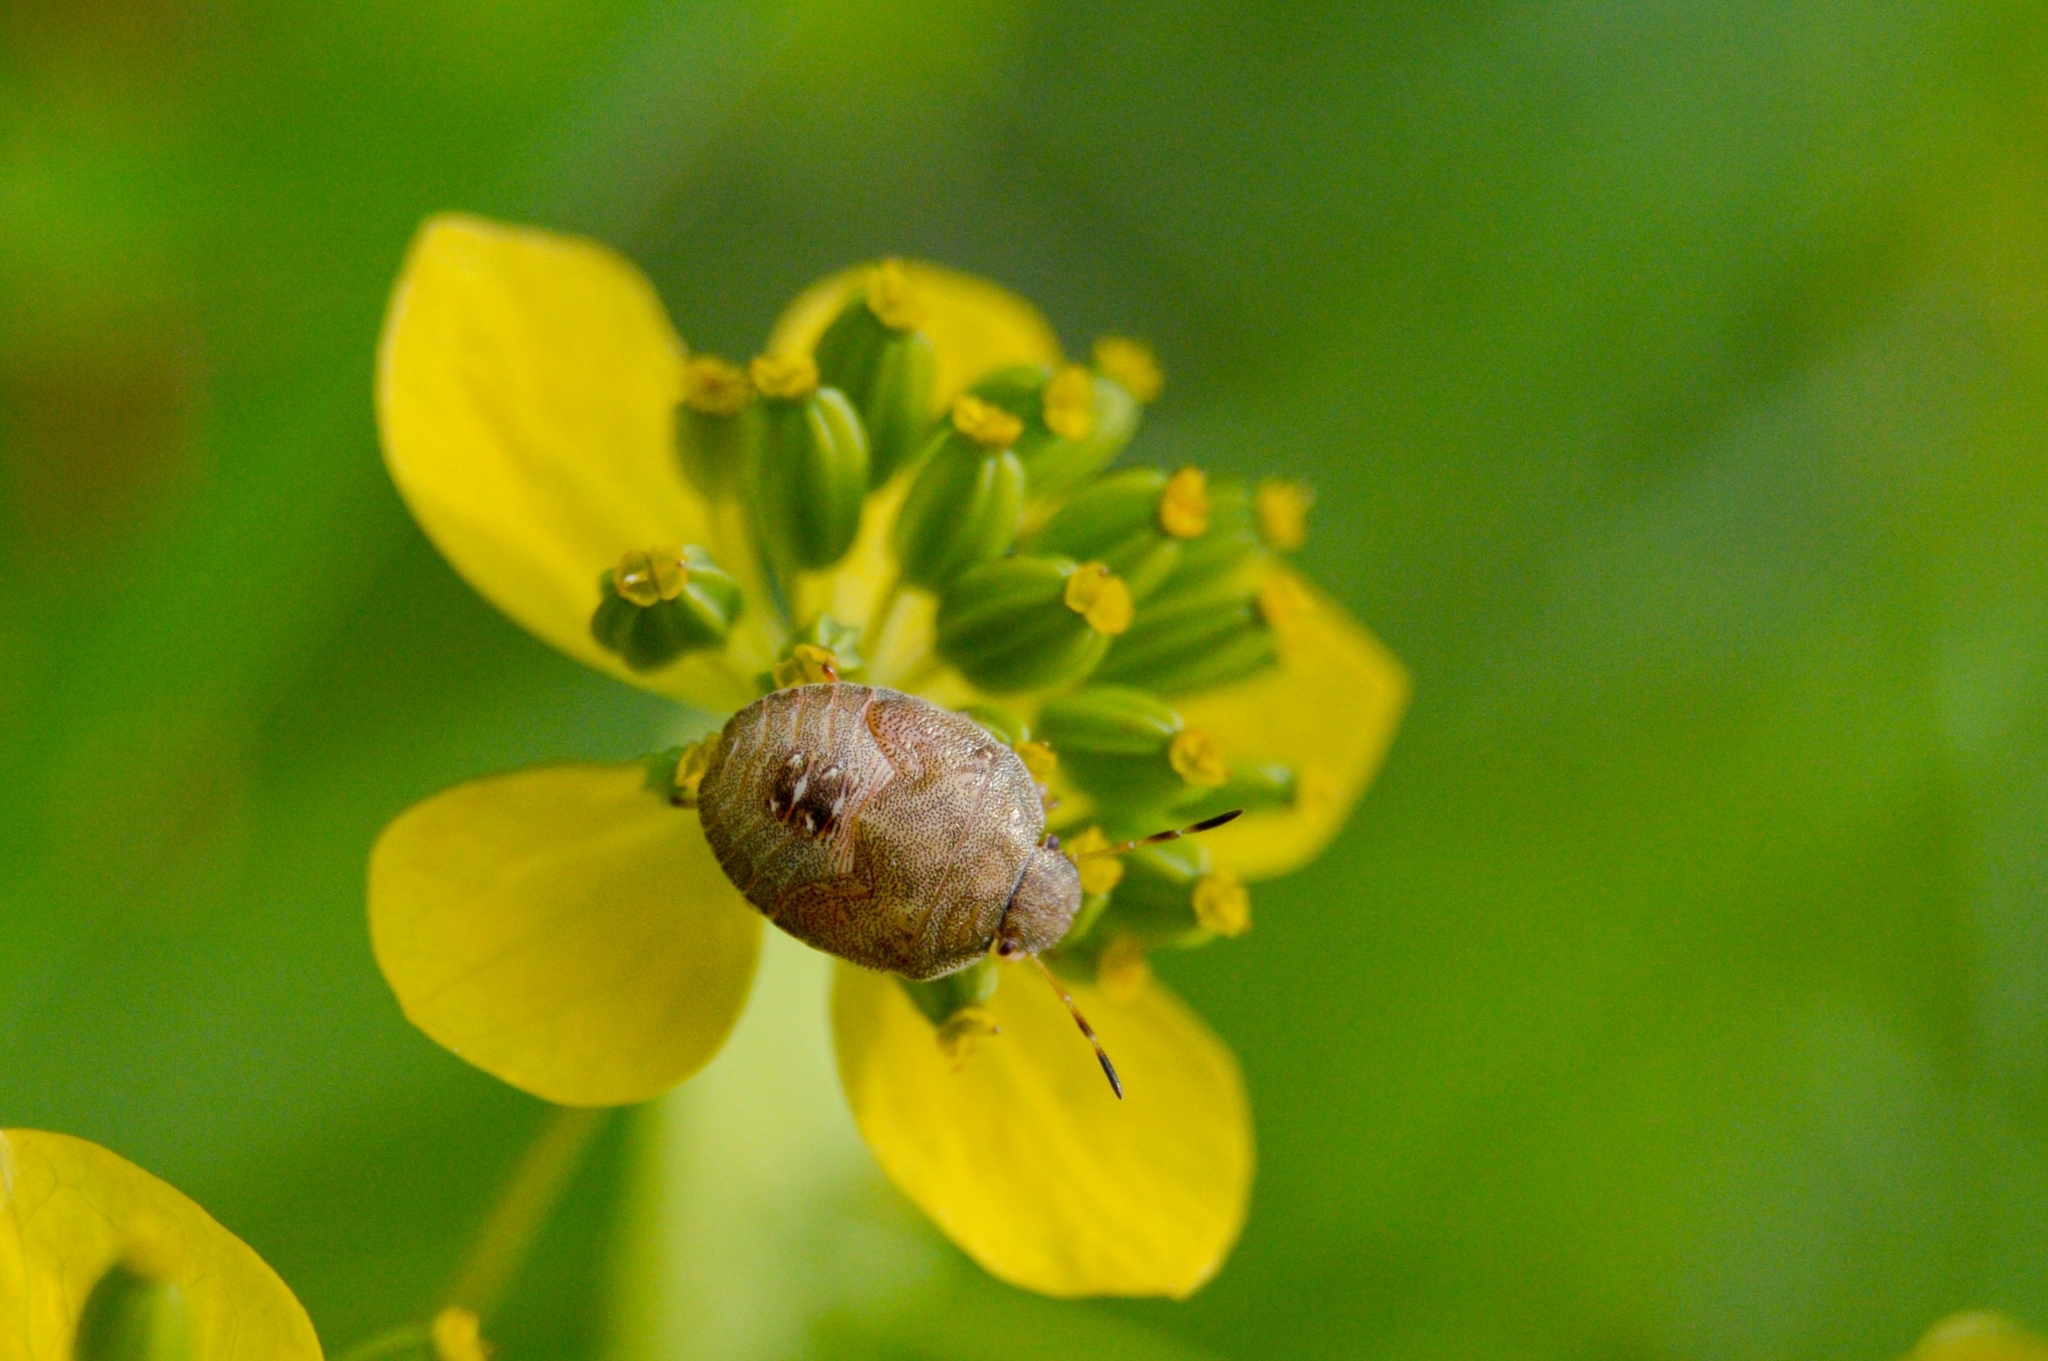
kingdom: Animalia
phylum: Arthropoda
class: Insecta
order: Hemiptera
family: Pentatomidae
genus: Holcostethus
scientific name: Holcostethus strictus
